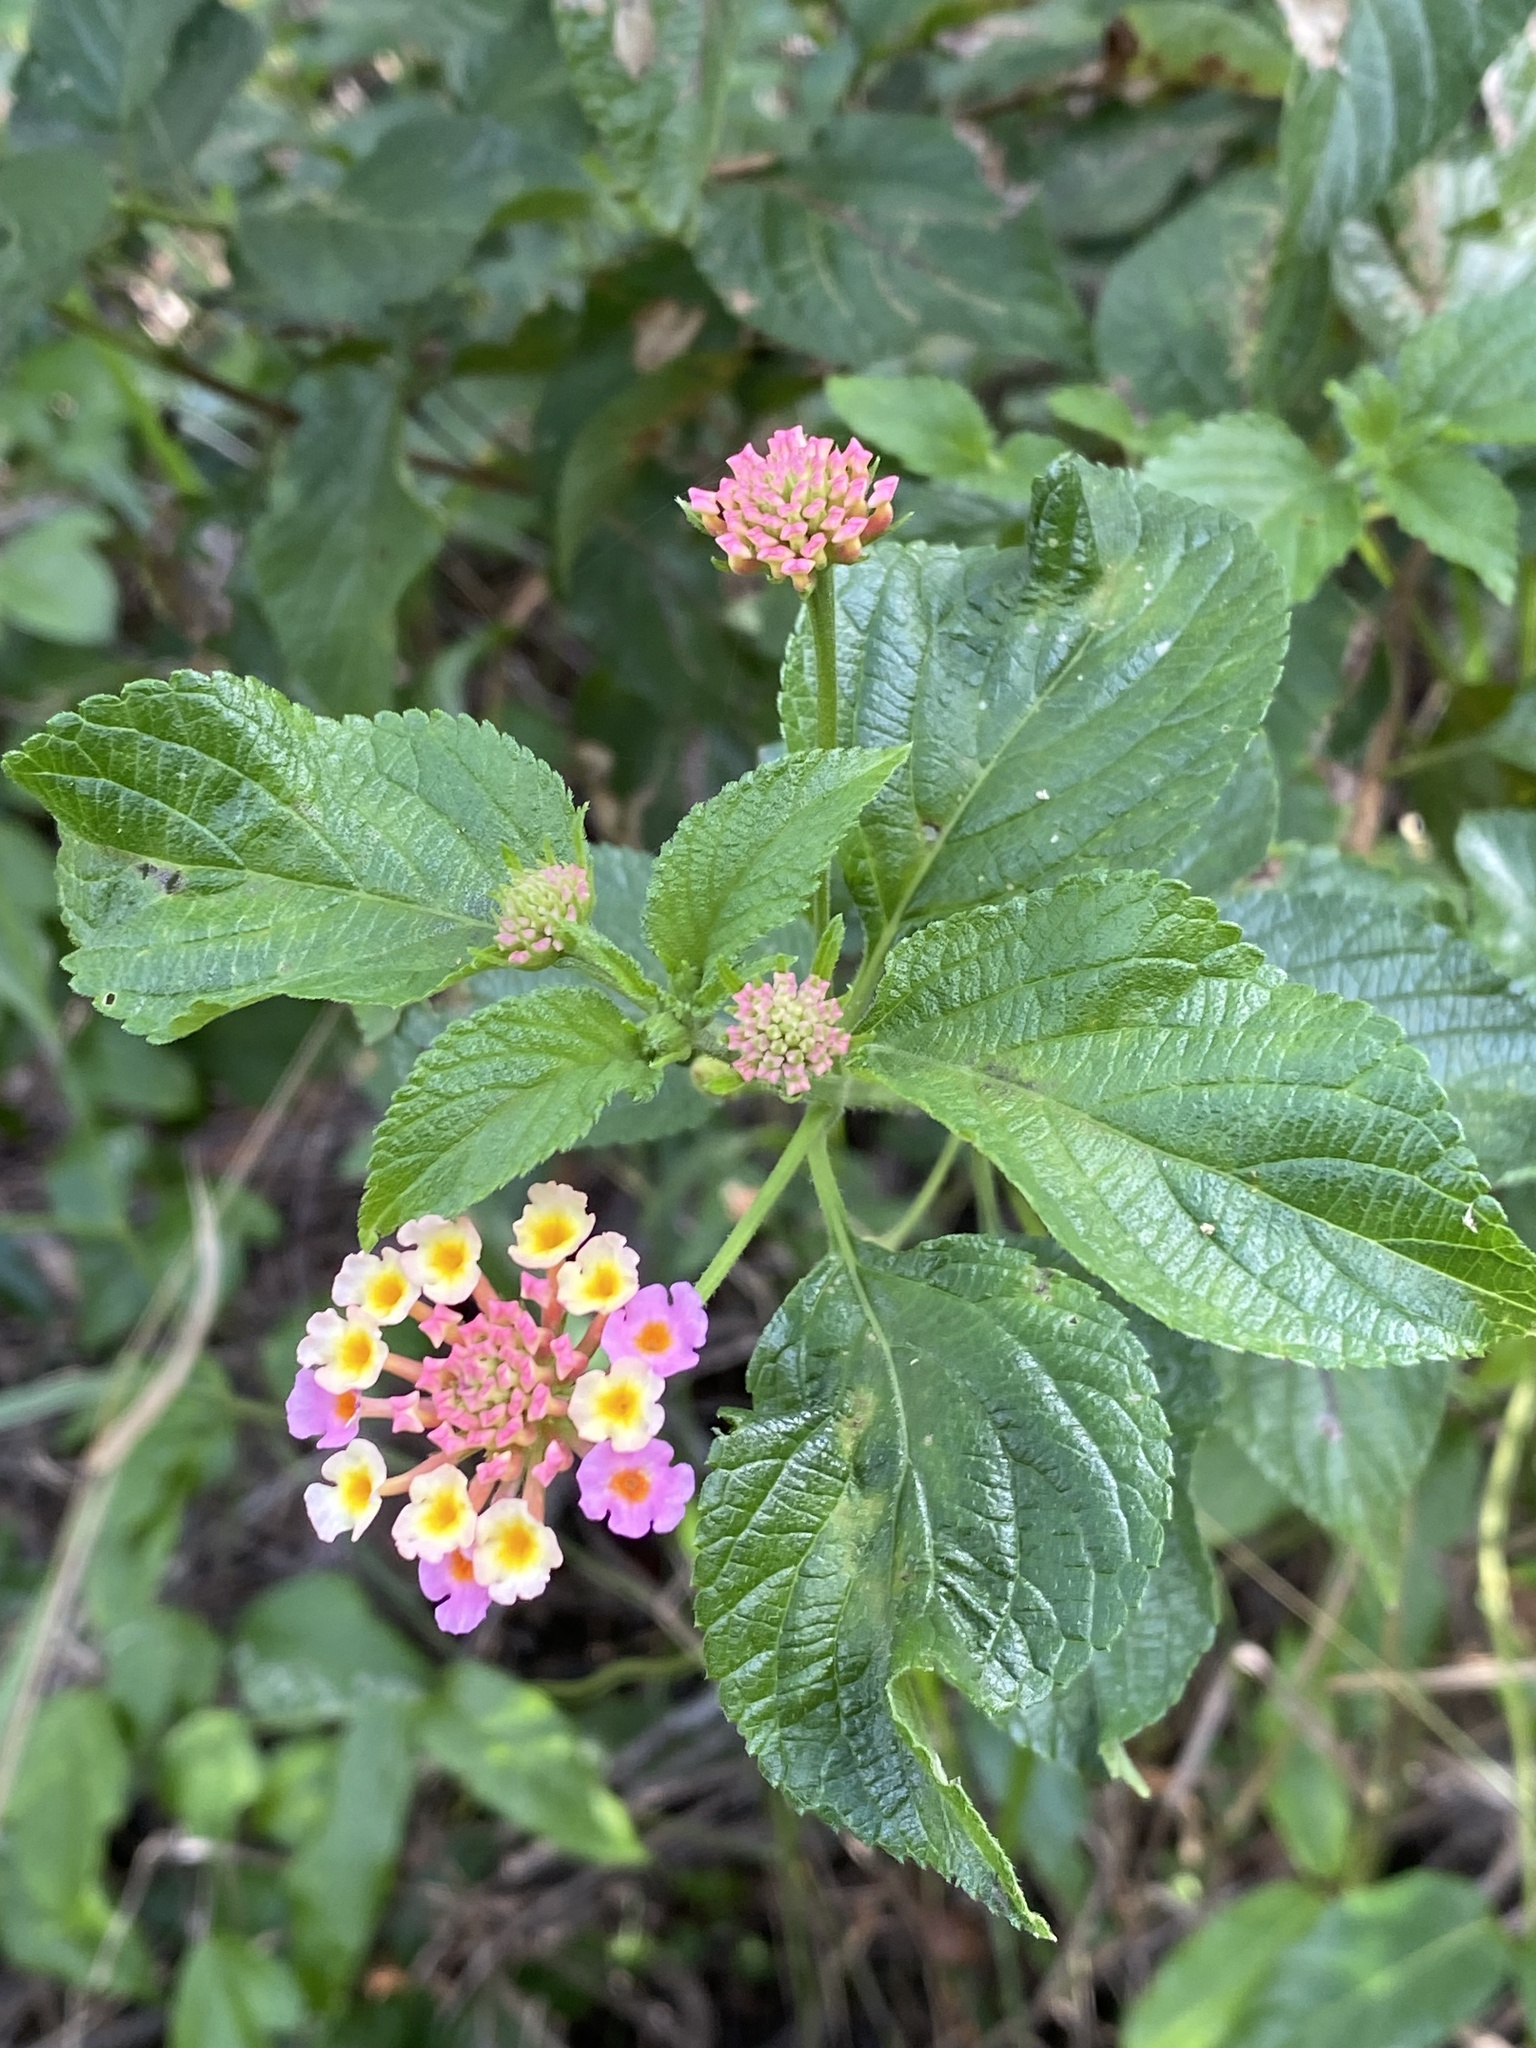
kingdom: Plantae
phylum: Tracheophyta
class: Magnoliopsida
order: Lamiales
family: Verbenaceae
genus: Lantana
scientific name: Lantana camara
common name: Lantana
